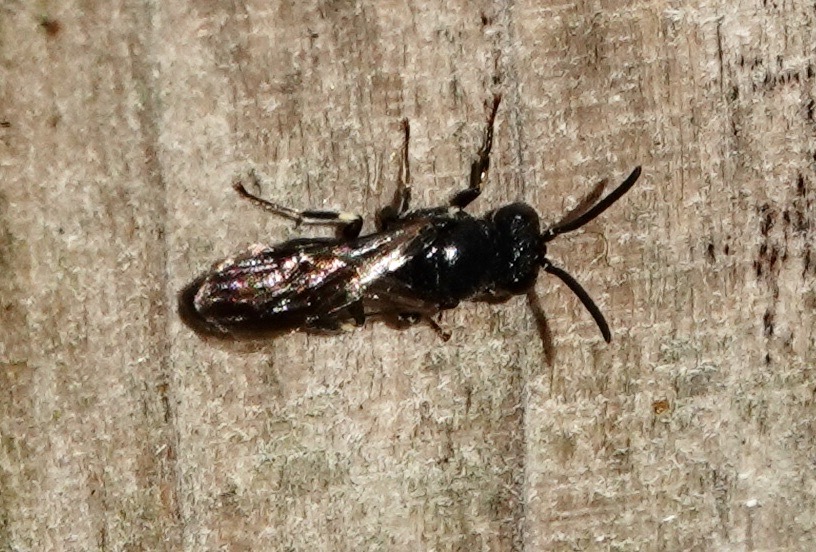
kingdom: Animalia
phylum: Arthropoda
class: Insecta
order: Hymenoptera
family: Colletidae
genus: Hylaeus
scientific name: Hylaeus communis
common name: Common yellow-face bee
